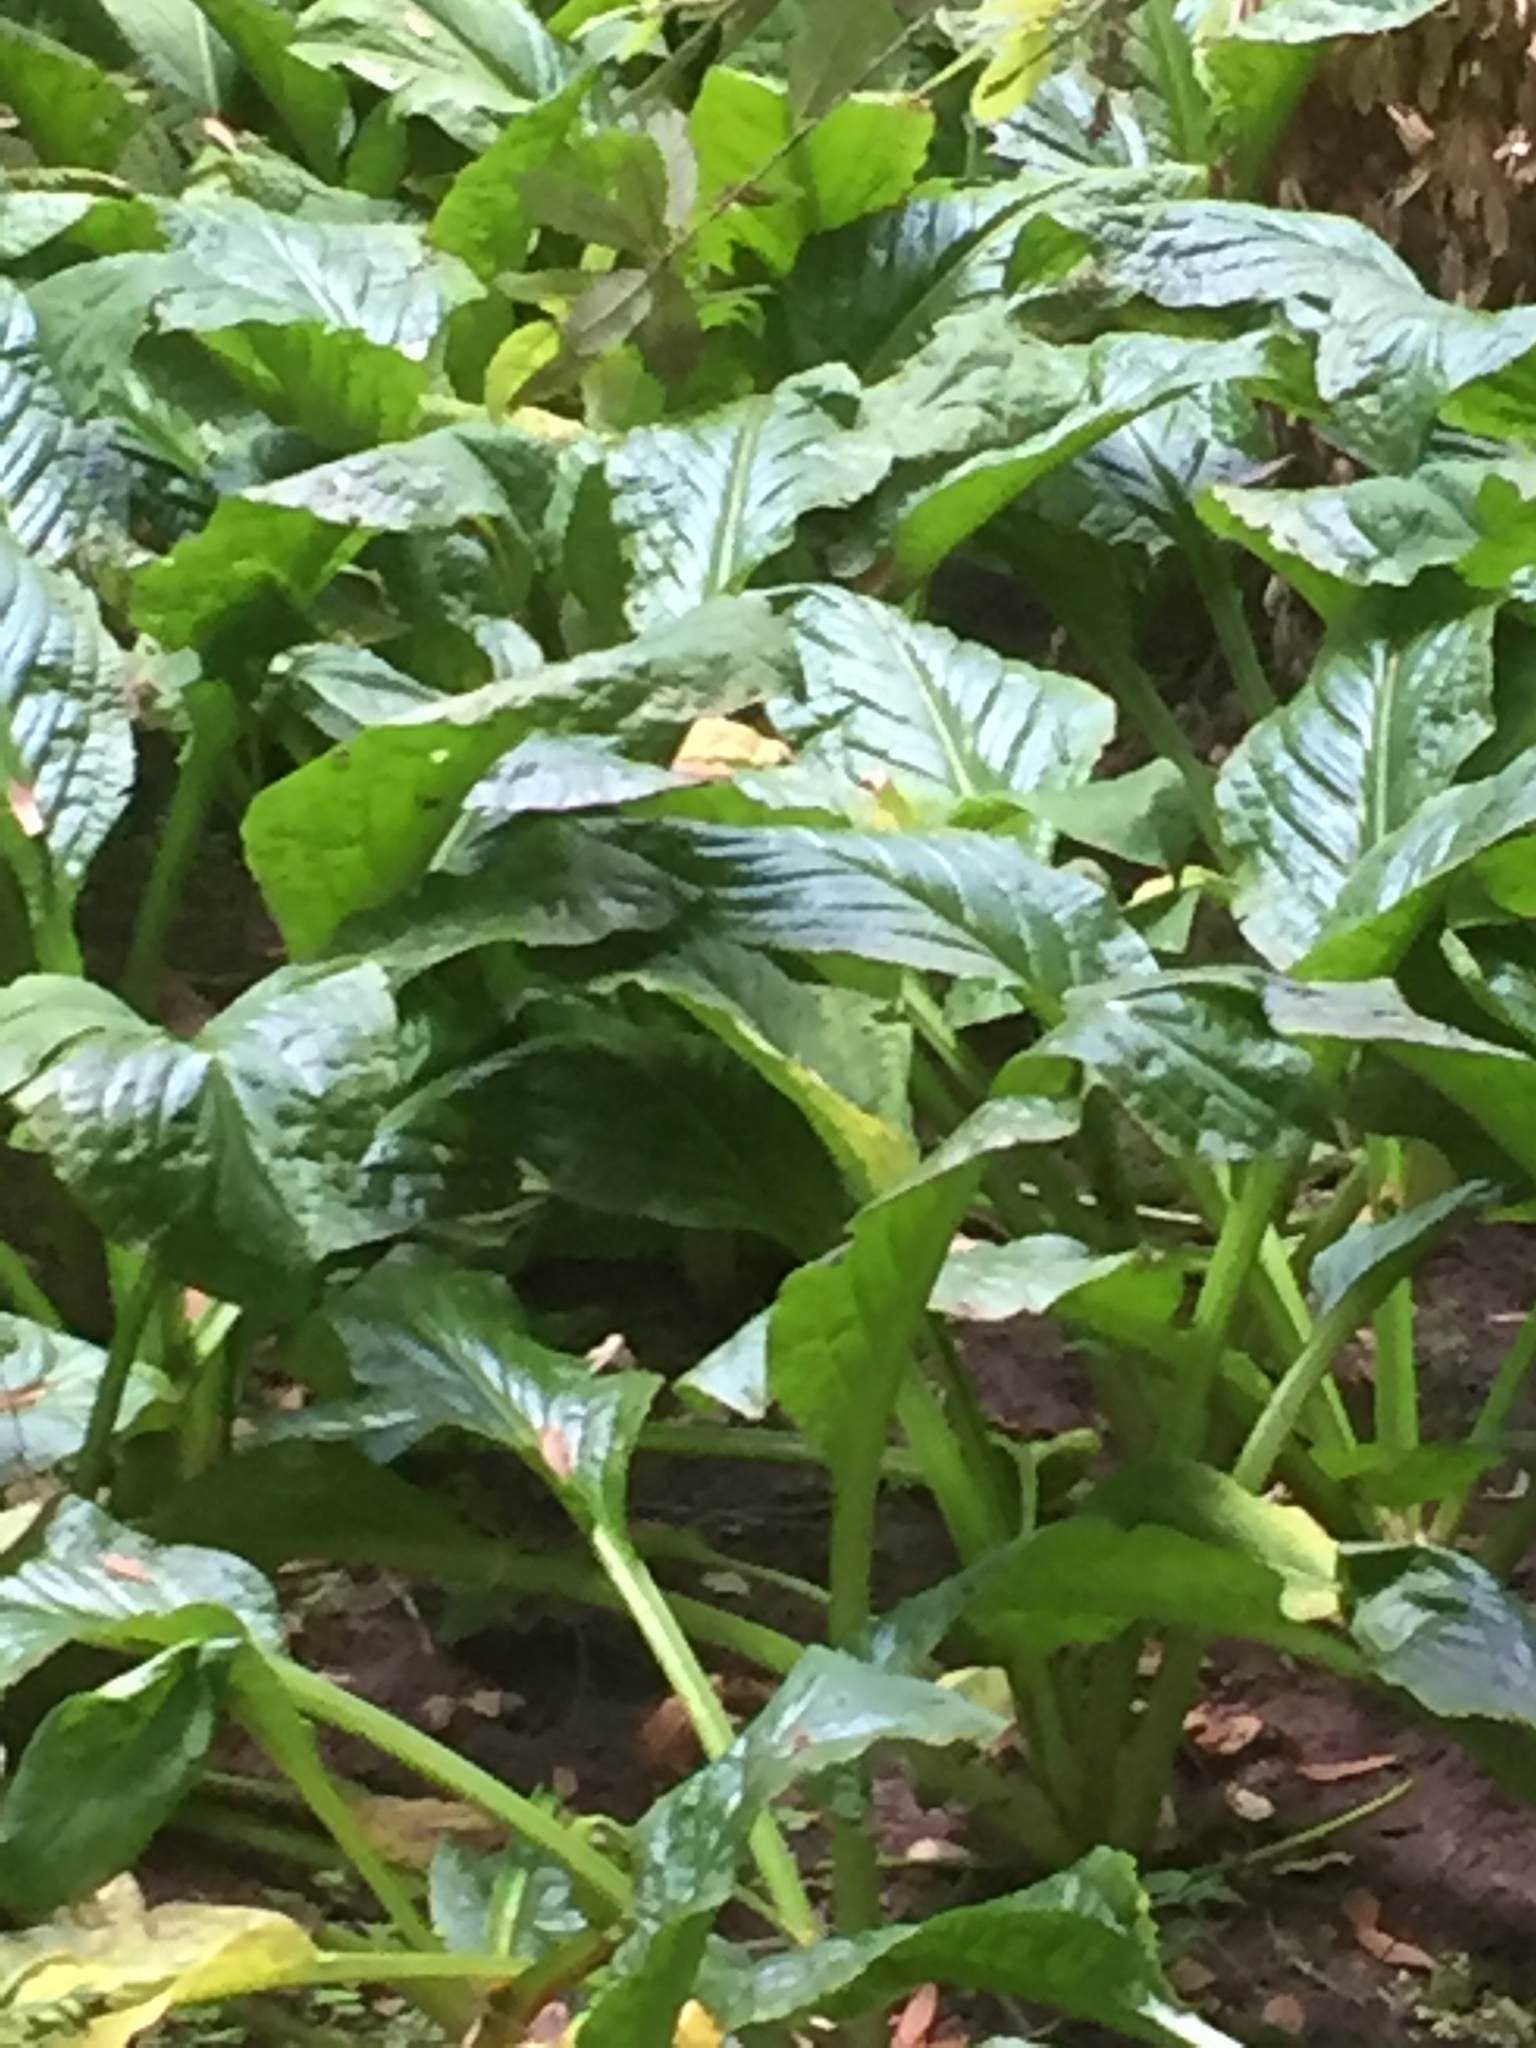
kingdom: Plantae
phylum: Tracheophyta
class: Liliopsida
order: Alismatales
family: Araceae
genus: Lysichiton
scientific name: Lysichiton americanus
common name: American skunk cabbage
